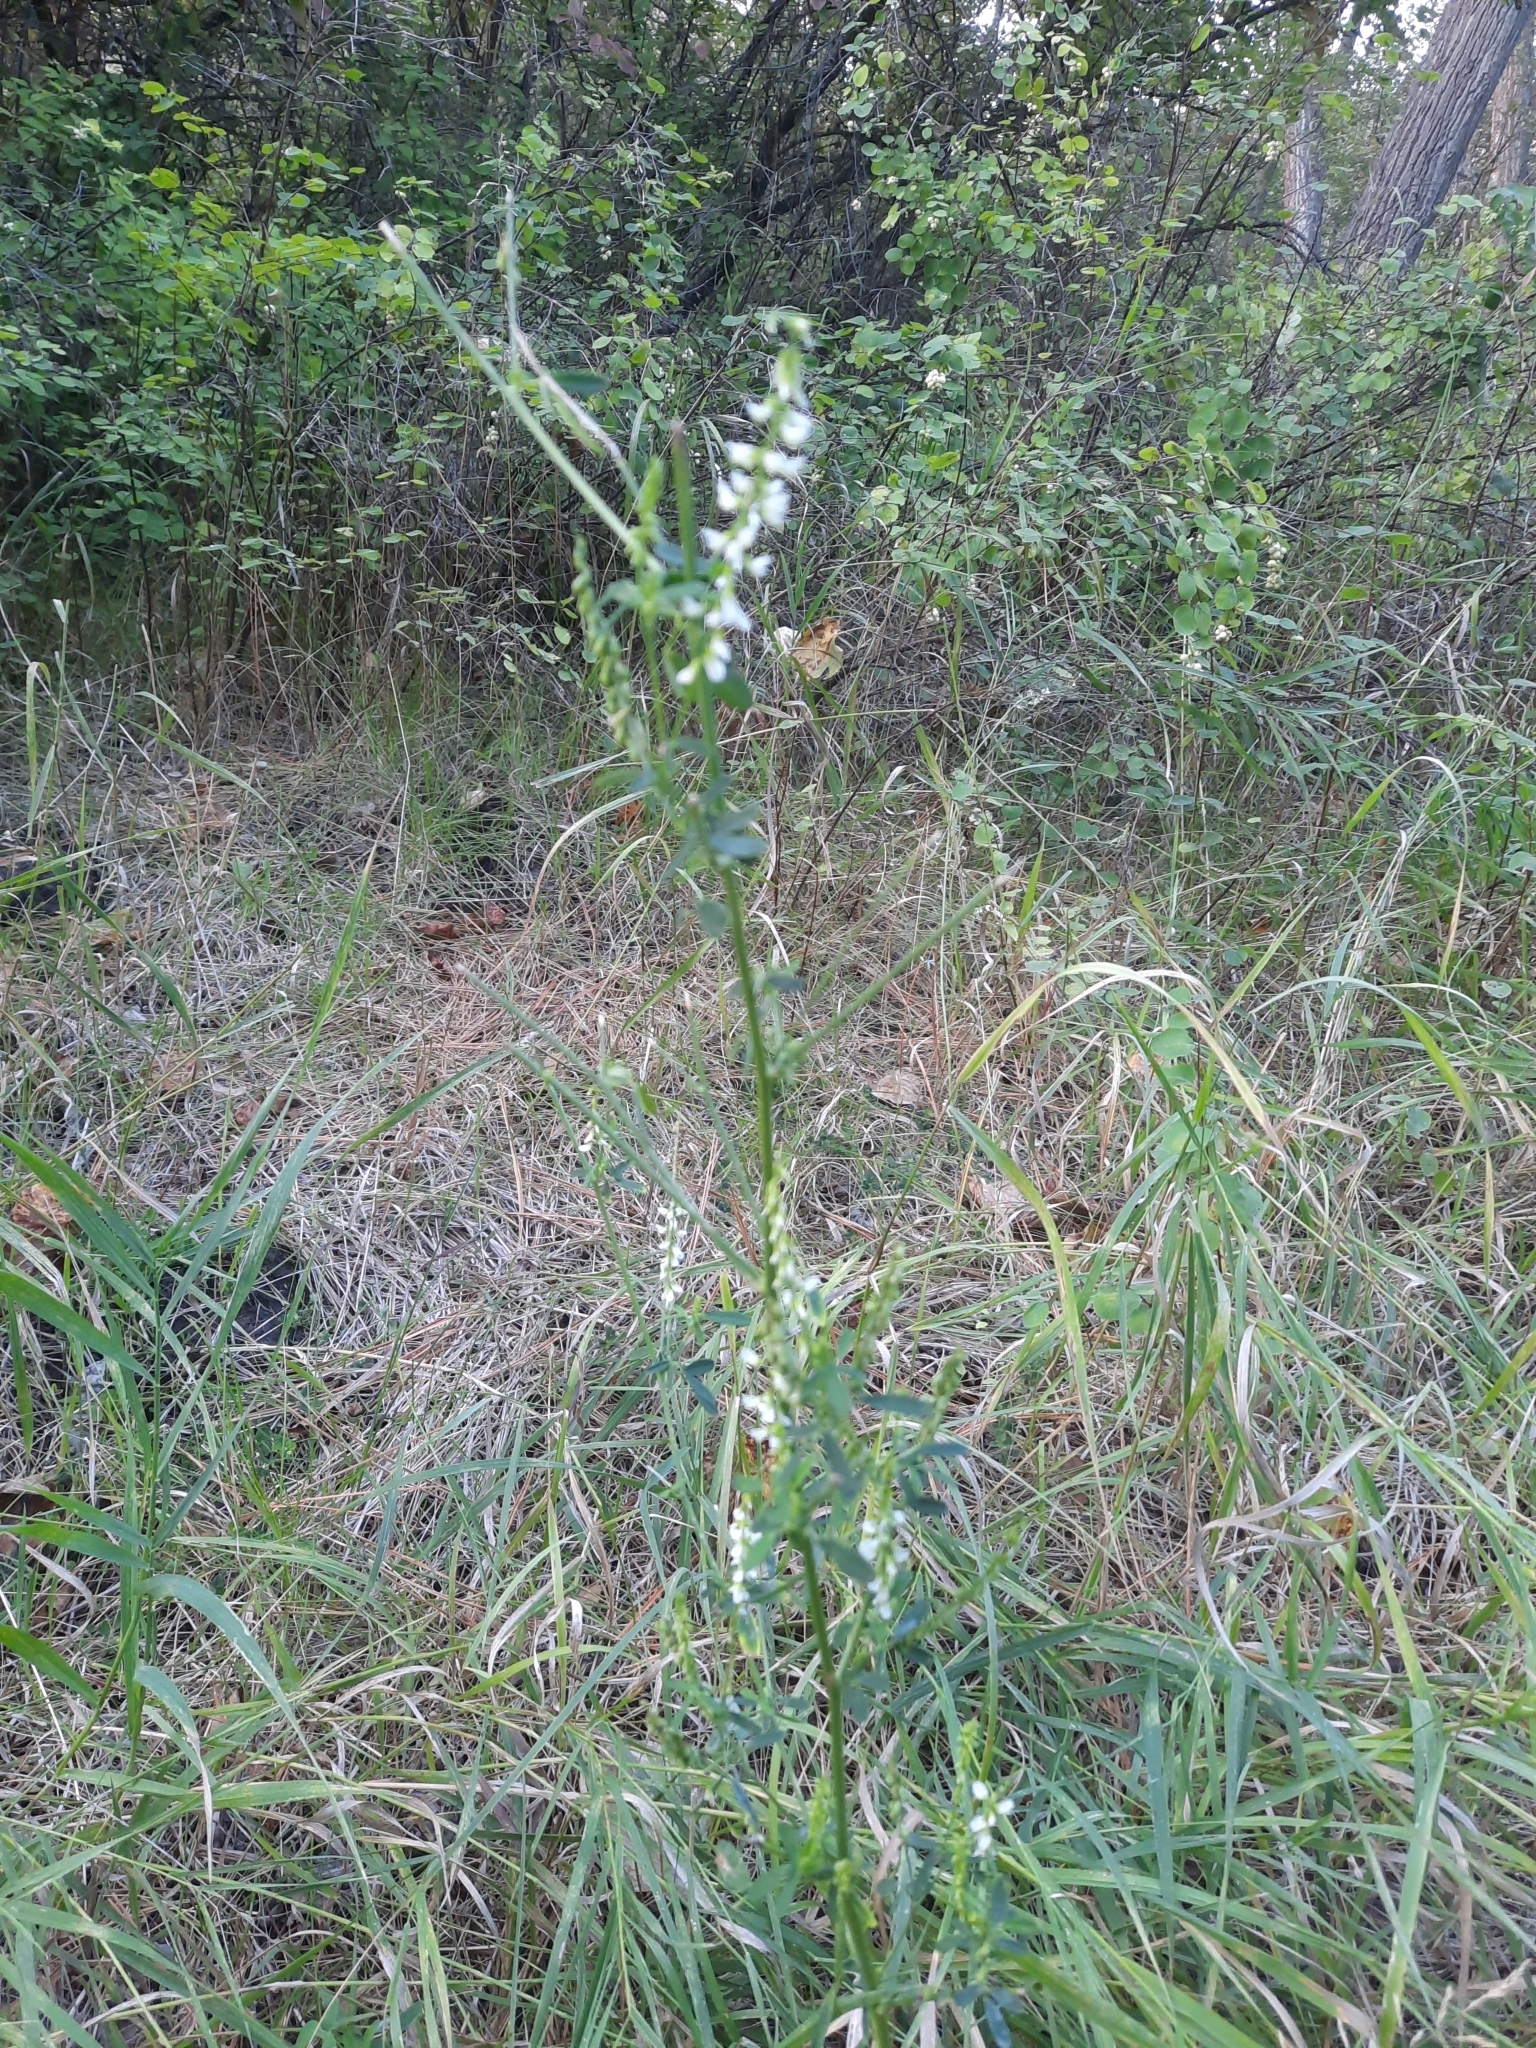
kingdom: Plantae
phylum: Tracheophyta
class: Magnoliopsida
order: Fabales
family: Fabaceae
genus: Melilotus
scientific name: Melilotus albus
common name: White melilot
